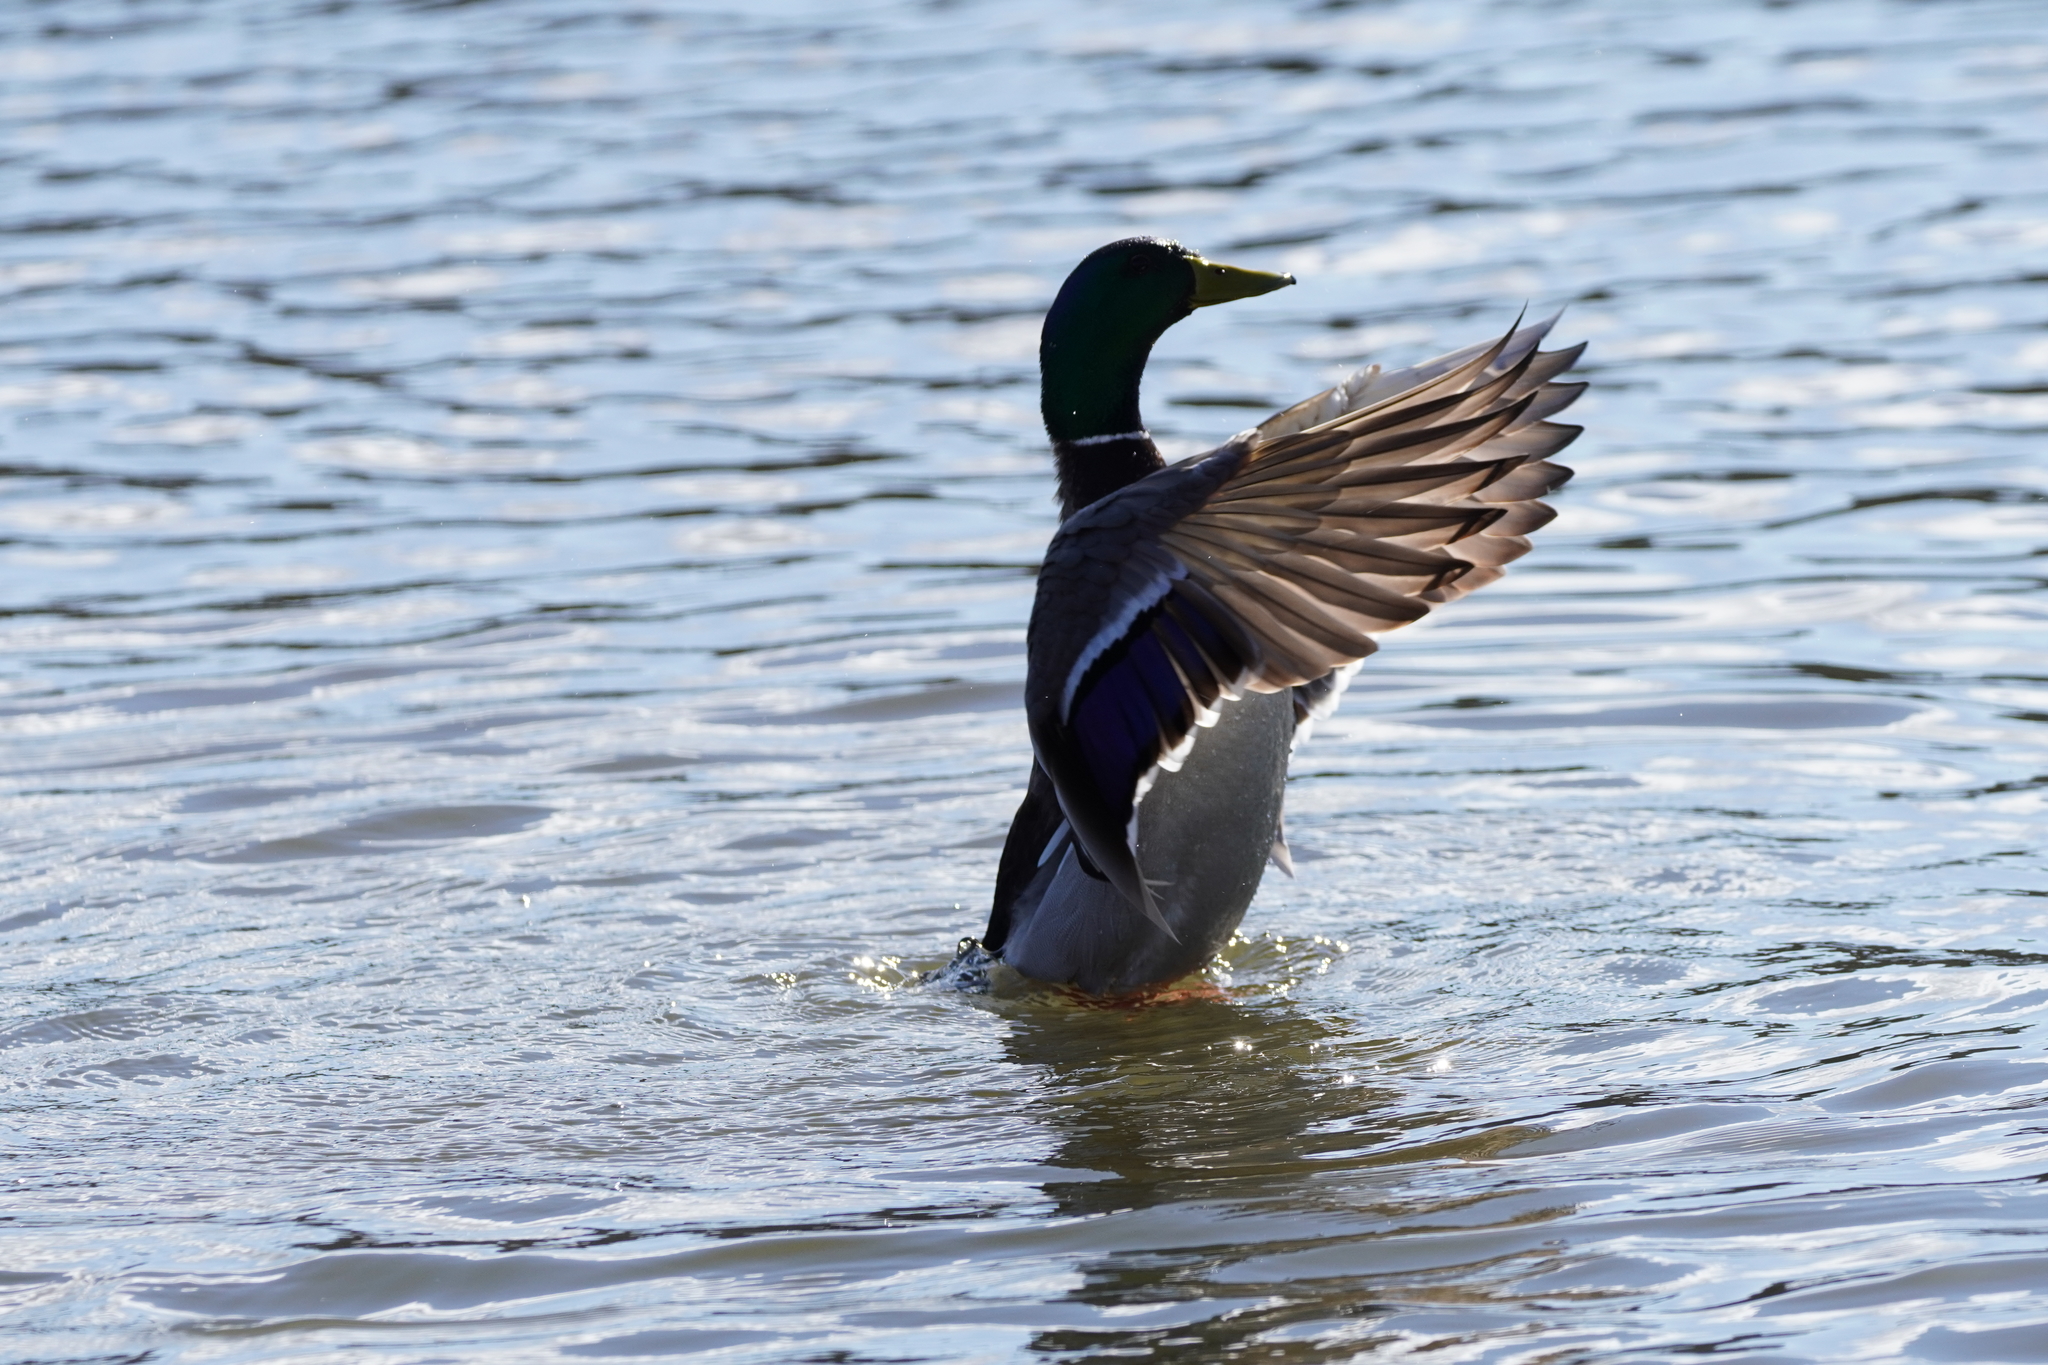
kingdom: Animalia
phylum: Chordata
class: Aves
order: Anseriformes
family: Anatidae
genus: Anas
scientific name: Anas platyrhynchos
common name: Mallard
